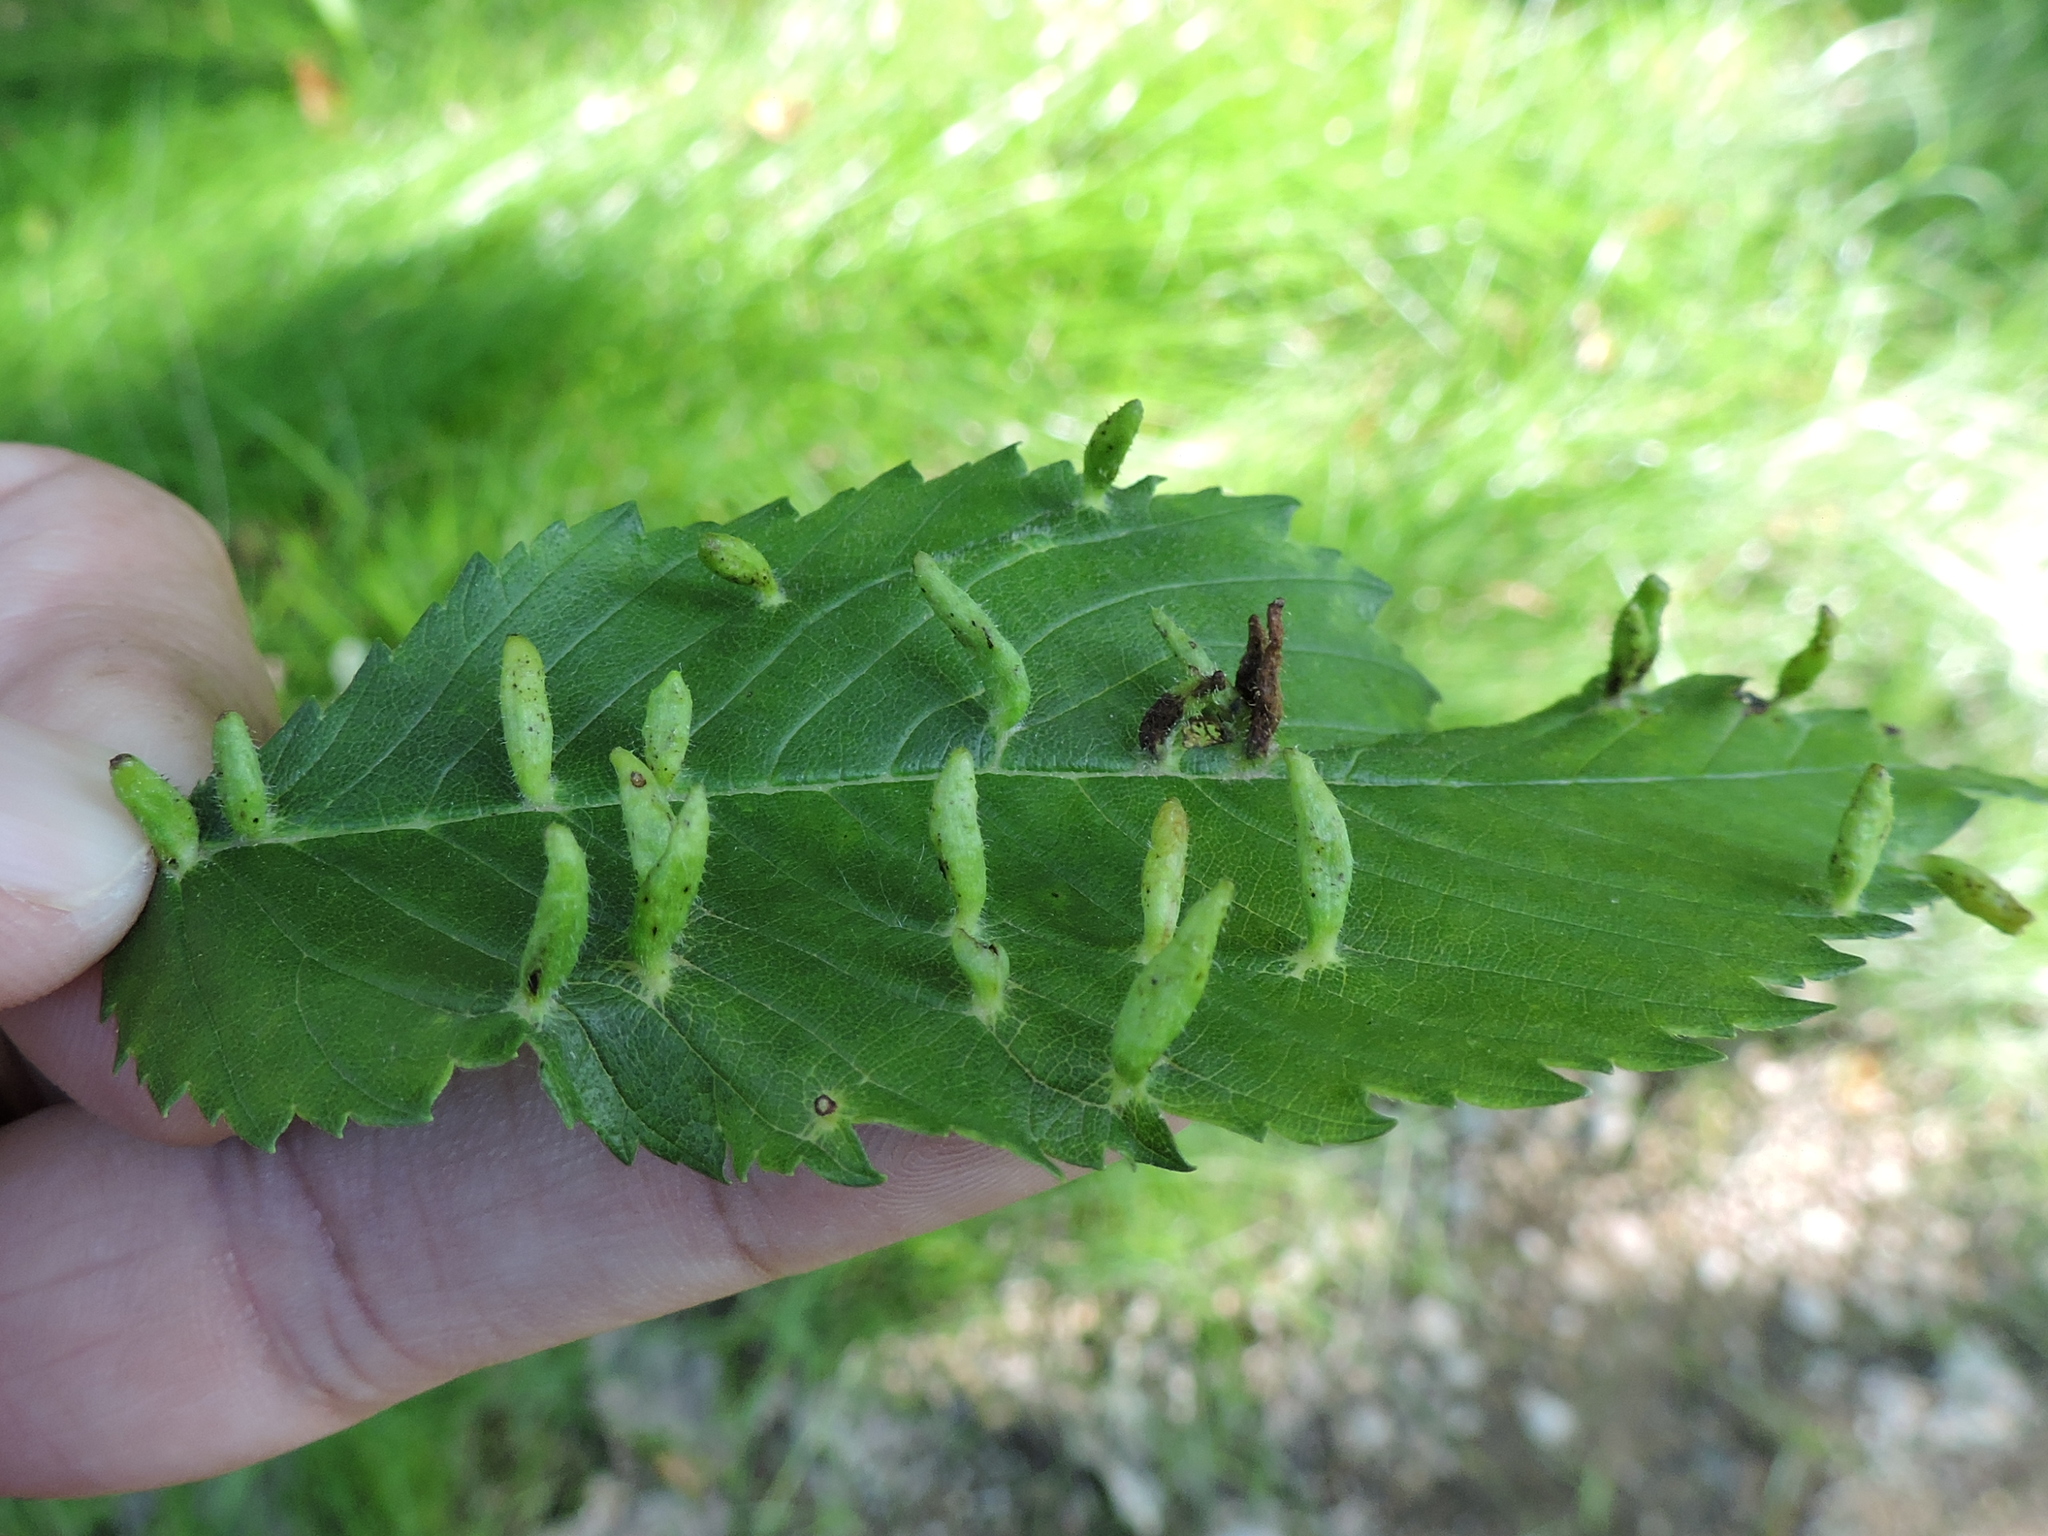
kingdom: Animalia
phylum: Arthropoda
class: Arachnida
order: Trombidiformes
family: Eriophyidae
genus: Aceria
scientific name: Aceria
